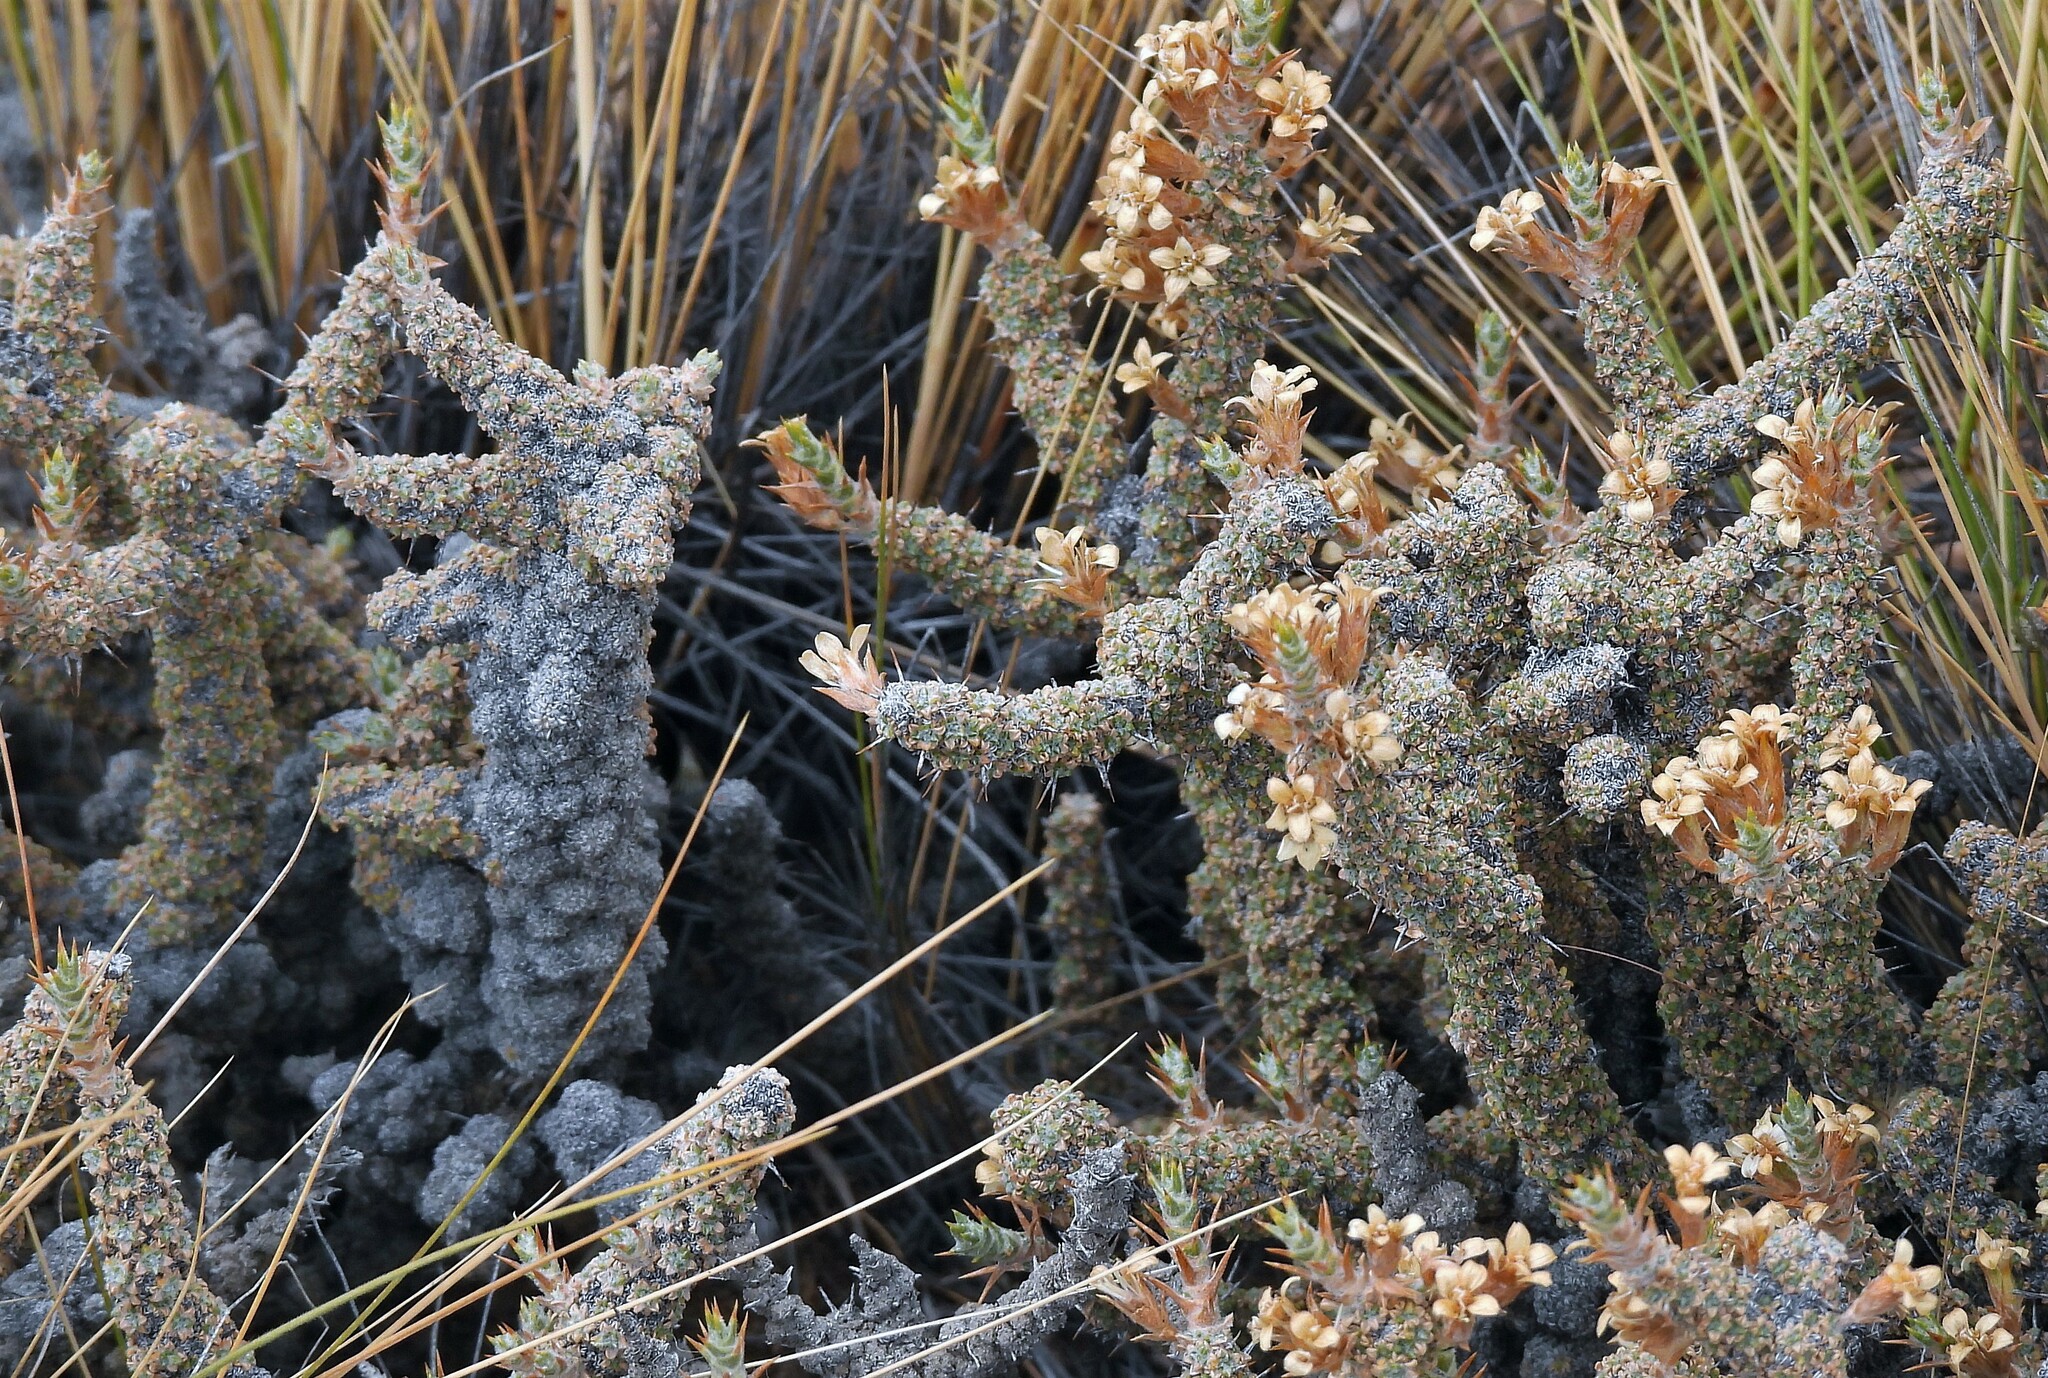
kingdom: Plantae
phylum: Tracheophyta
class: Magnoliopsida
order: Asterales
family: Asteraceae
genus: Nassauvia
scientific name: Nassauvia glomerulosa
